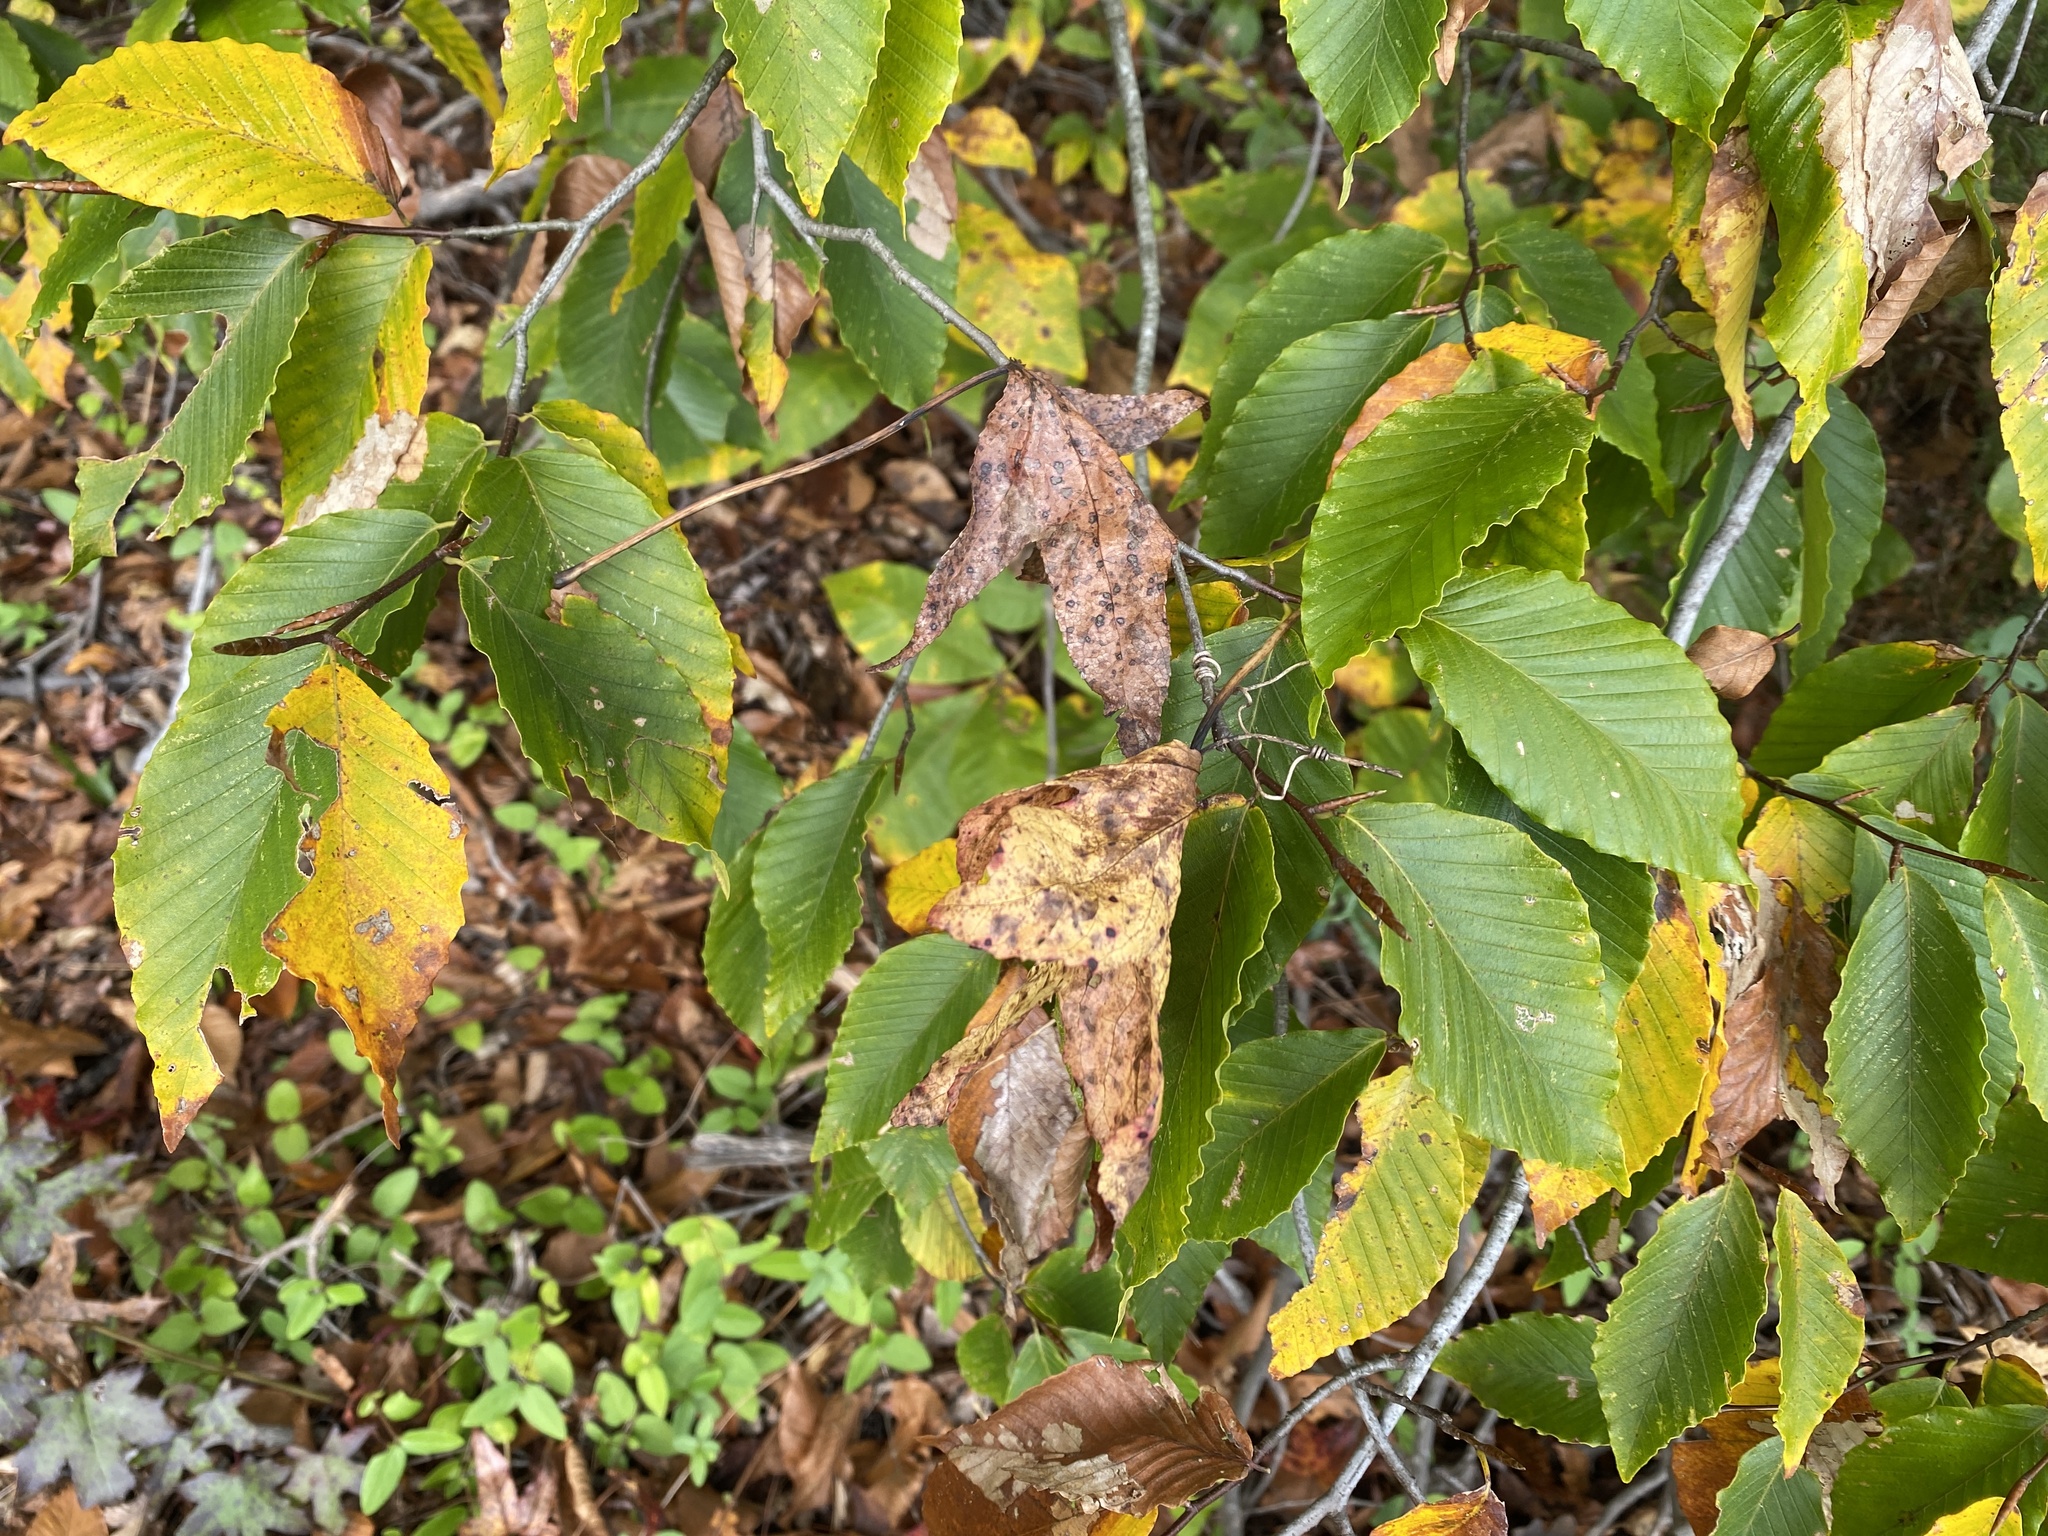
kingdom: Plantae
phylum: Tracheophyta
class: Magnoliopsida
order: Fagales
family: Fagaceae
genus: Fagus
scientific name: Fagus grandifolia
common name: American beech
